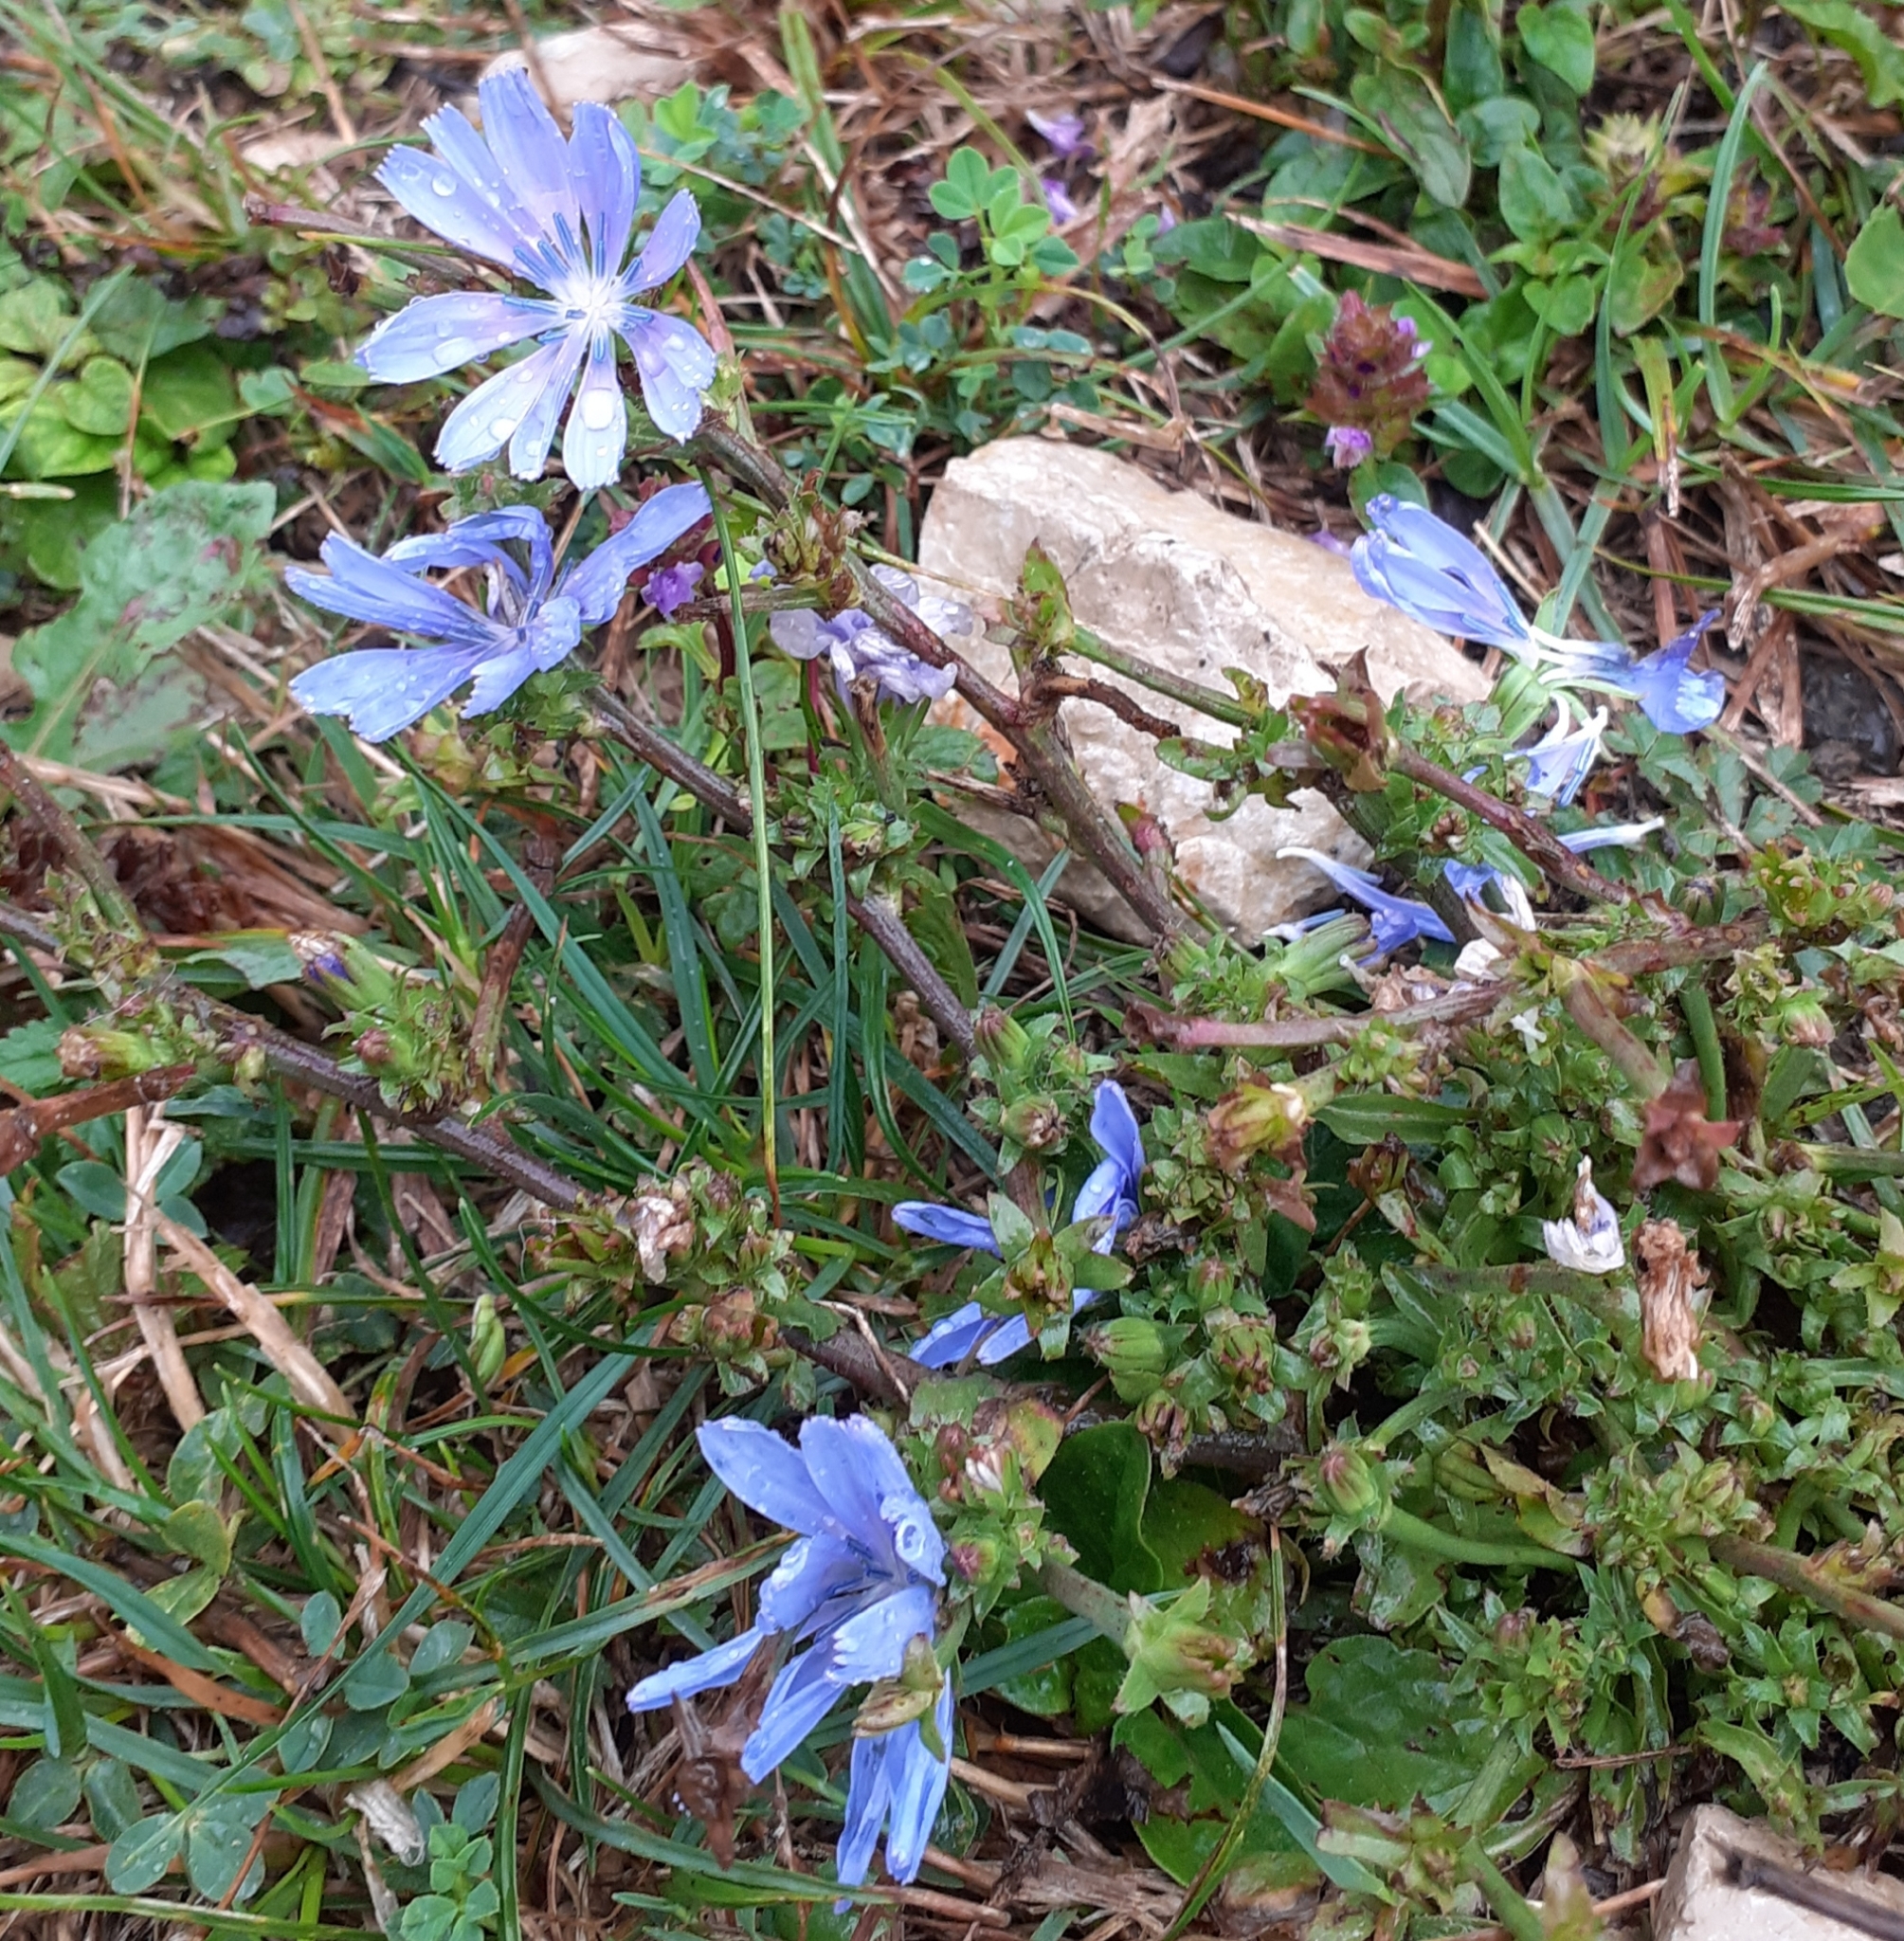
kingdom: Plantae
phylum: Tracheophyta
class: Magnoliopsida
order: Asterales
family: Asteraceae
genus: Cichorium
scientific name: Cichorium intybus
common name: Chicory
